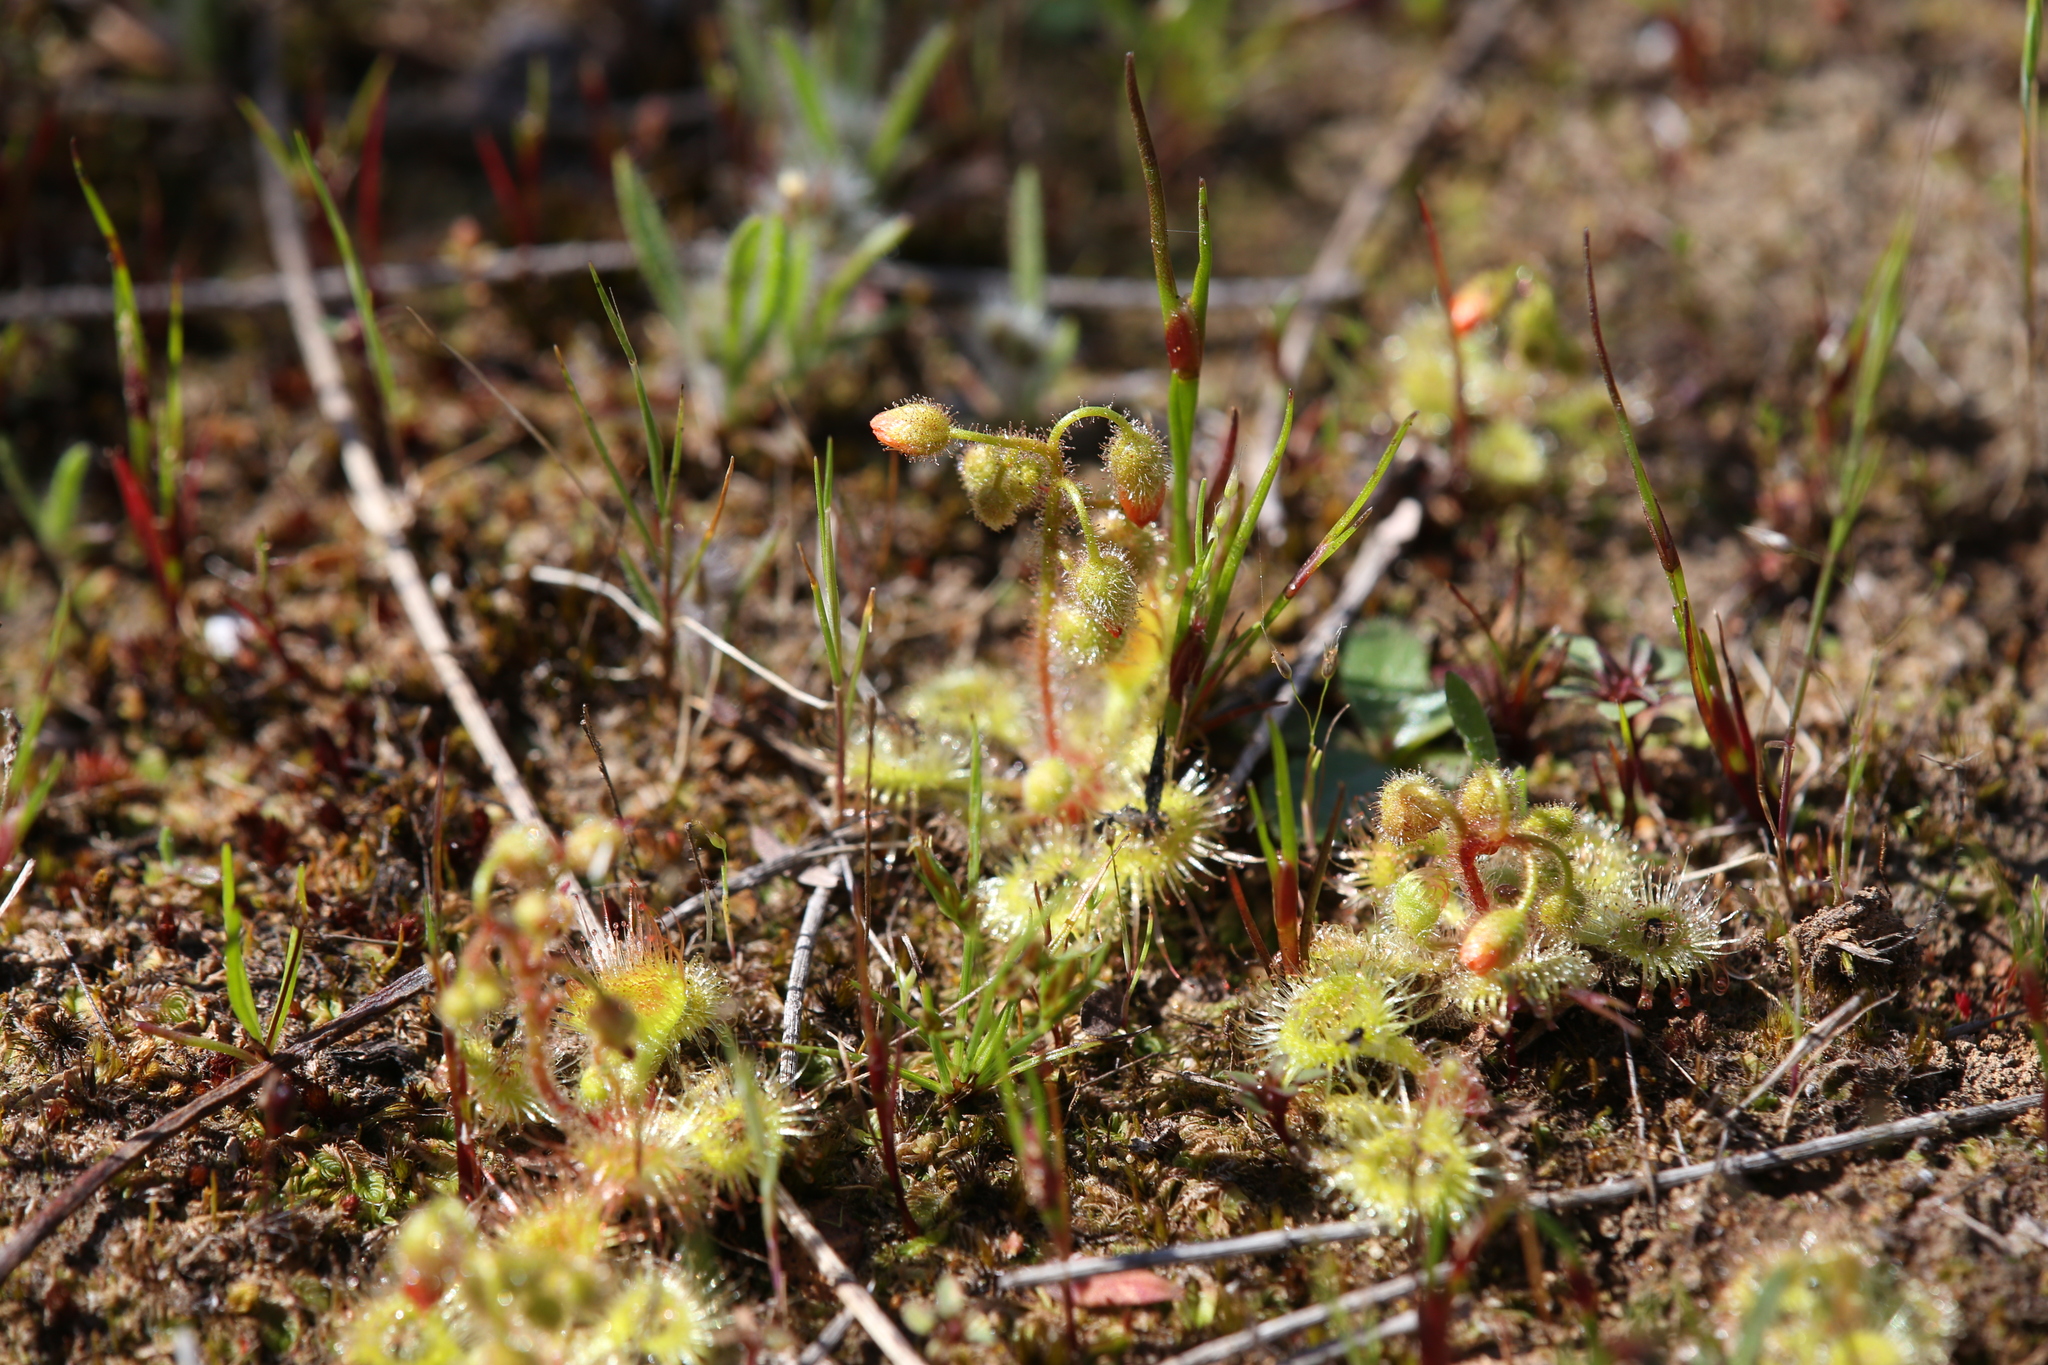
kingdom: Plantae
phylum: Tracheophyta
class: Magnoliopsida
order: Caryophyllales
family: Droseraceae
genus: Drosera
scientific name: Drosera glanduligera
